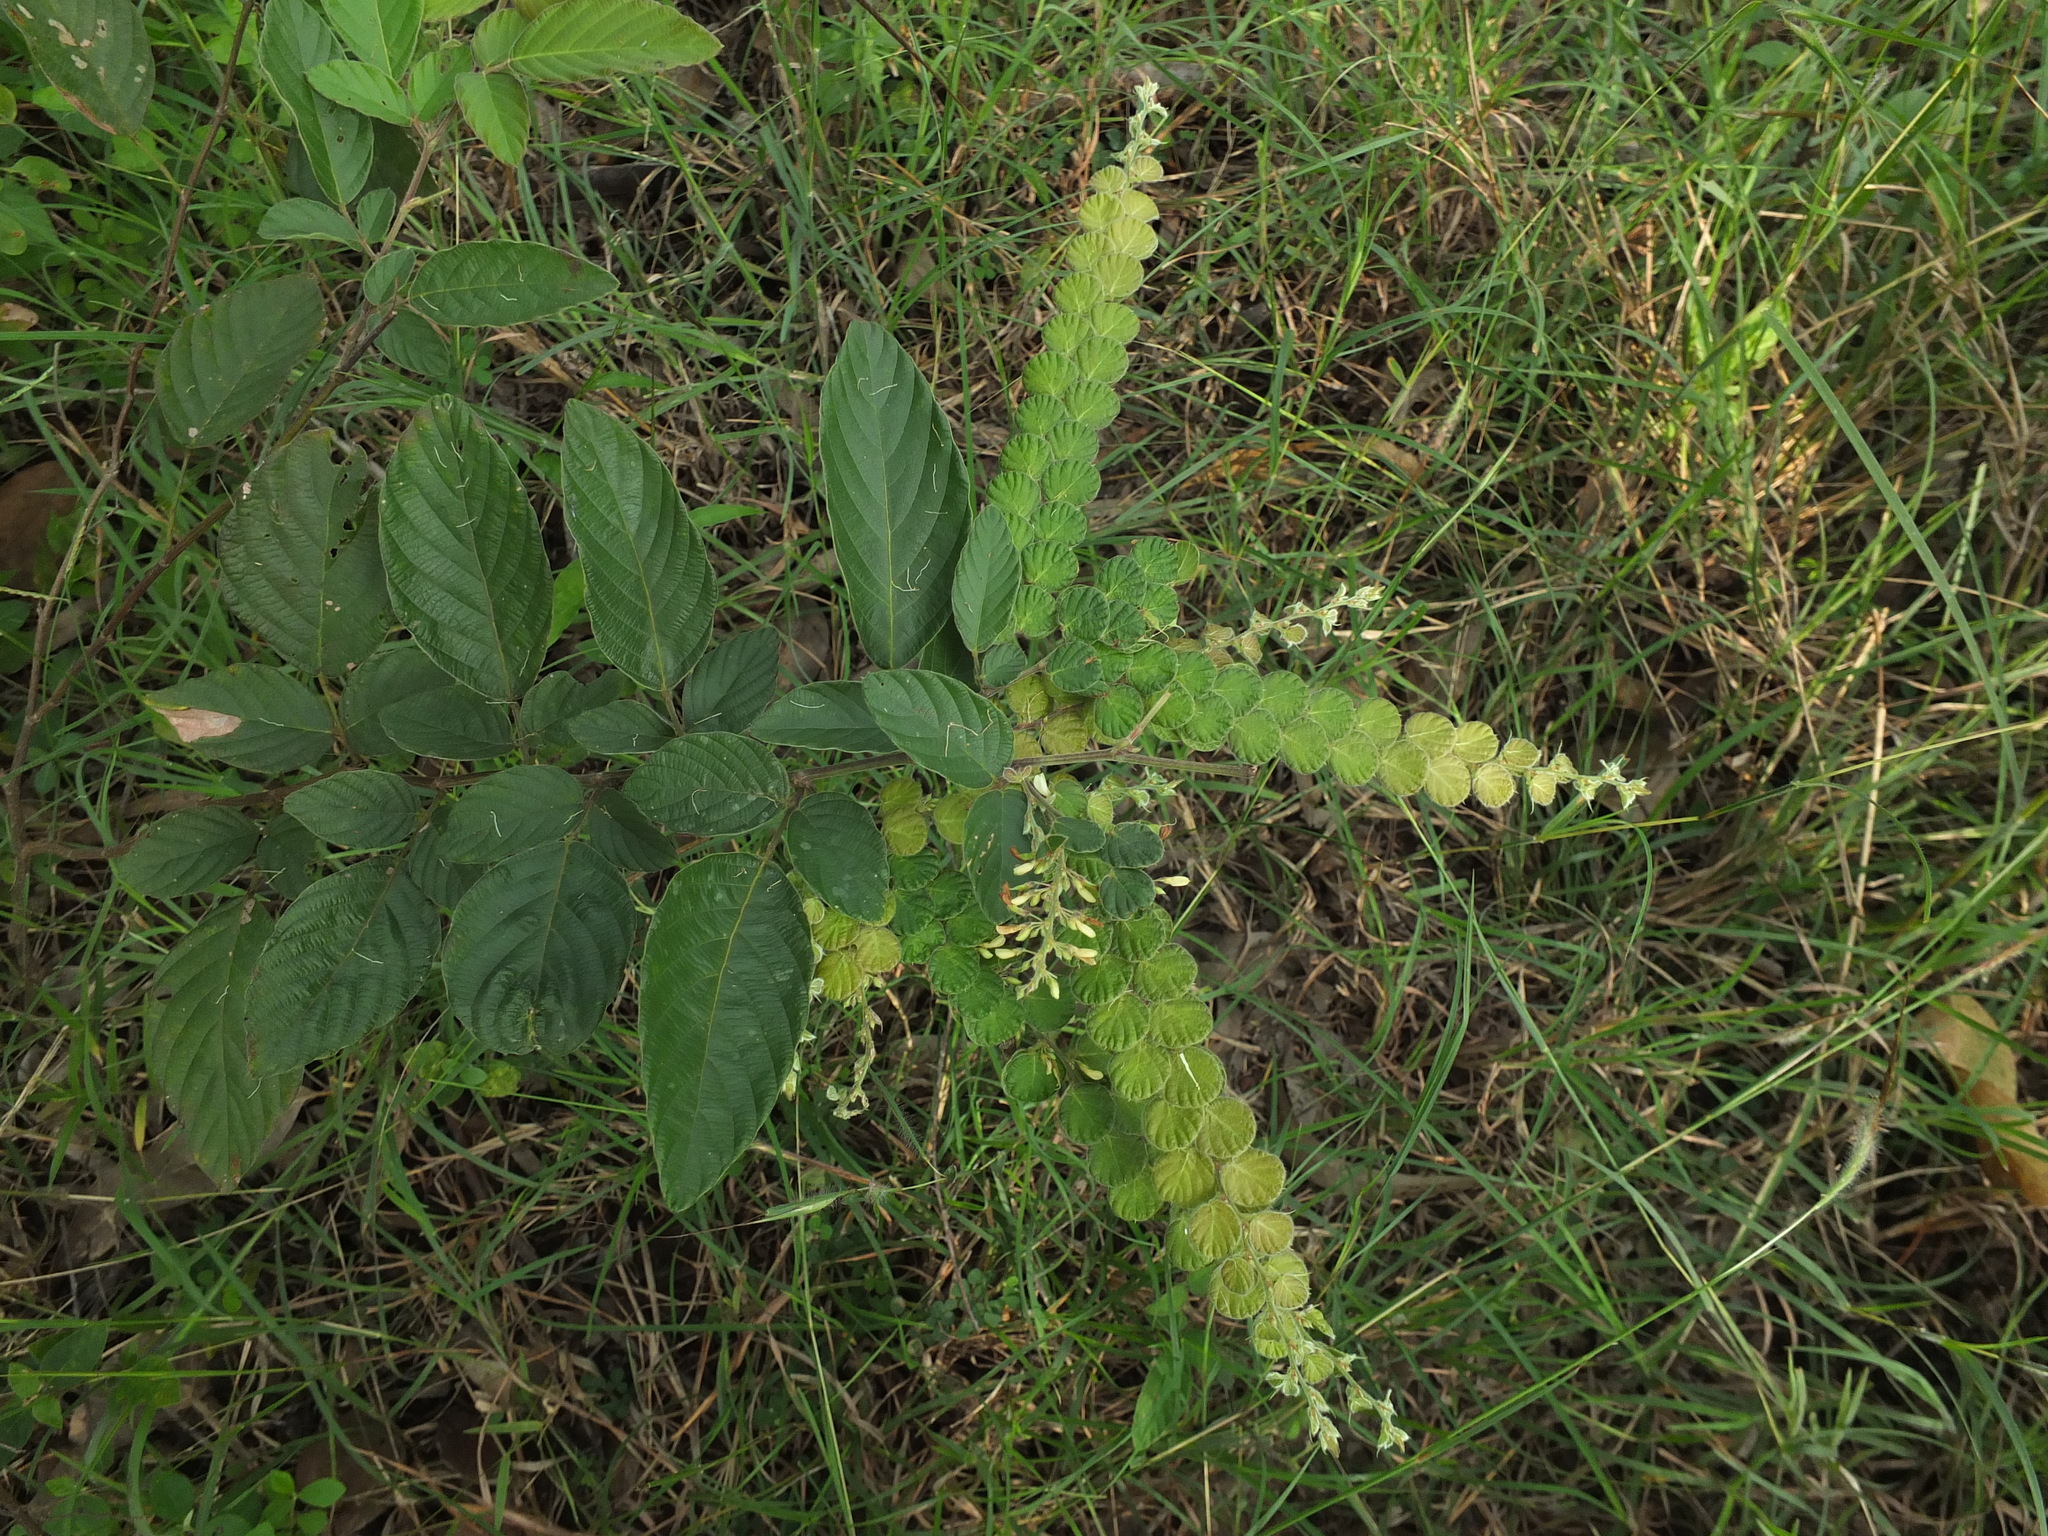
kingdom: Plantae
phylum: Tracheophyta
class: Magnoliopsida
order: Fabales
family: Fabaceae
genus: Phyllodium
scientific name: Phyllodium pulchellum
